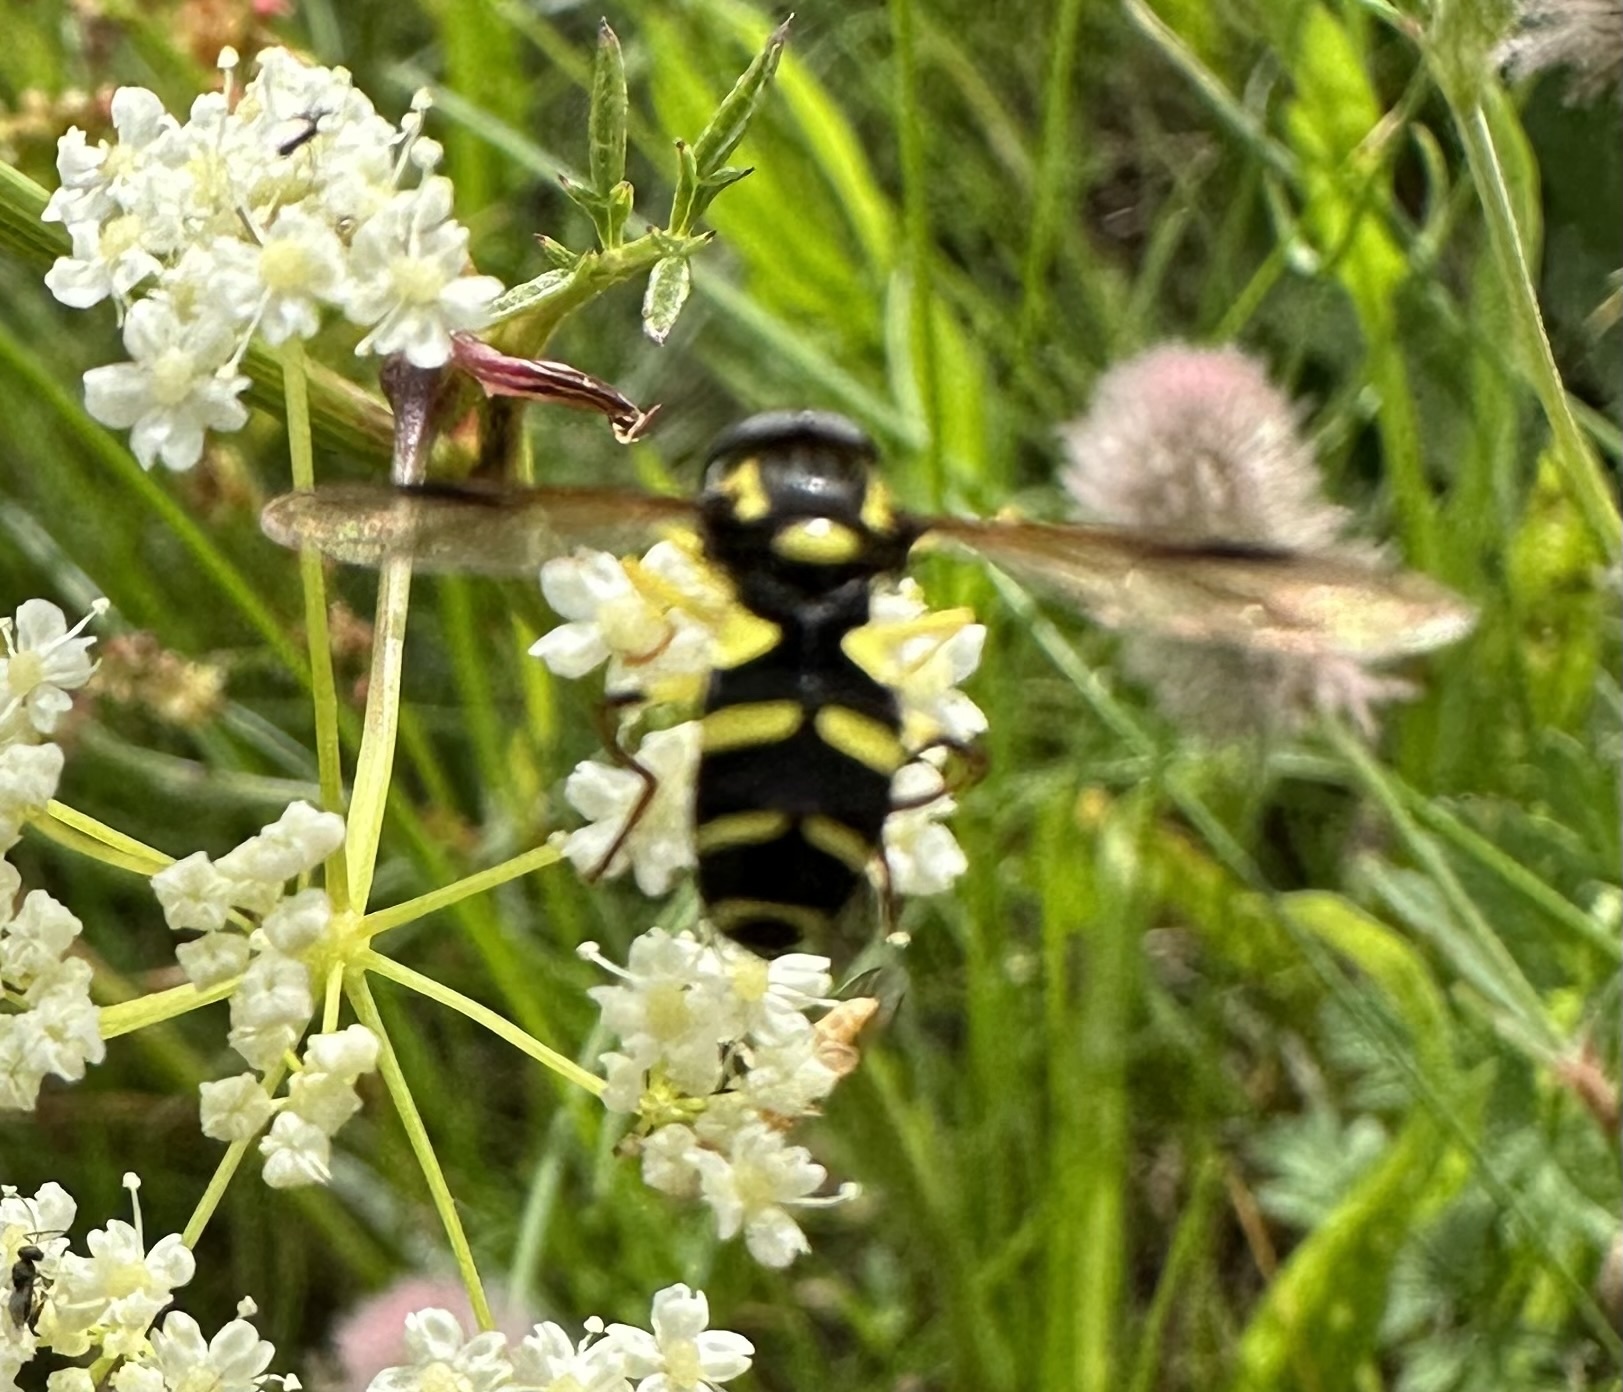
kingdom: Animalia
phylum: Arthropoda
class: Insecta
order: Diptera
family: Syrphidae
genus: Philhelius
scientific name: Philhelius pedissequum
